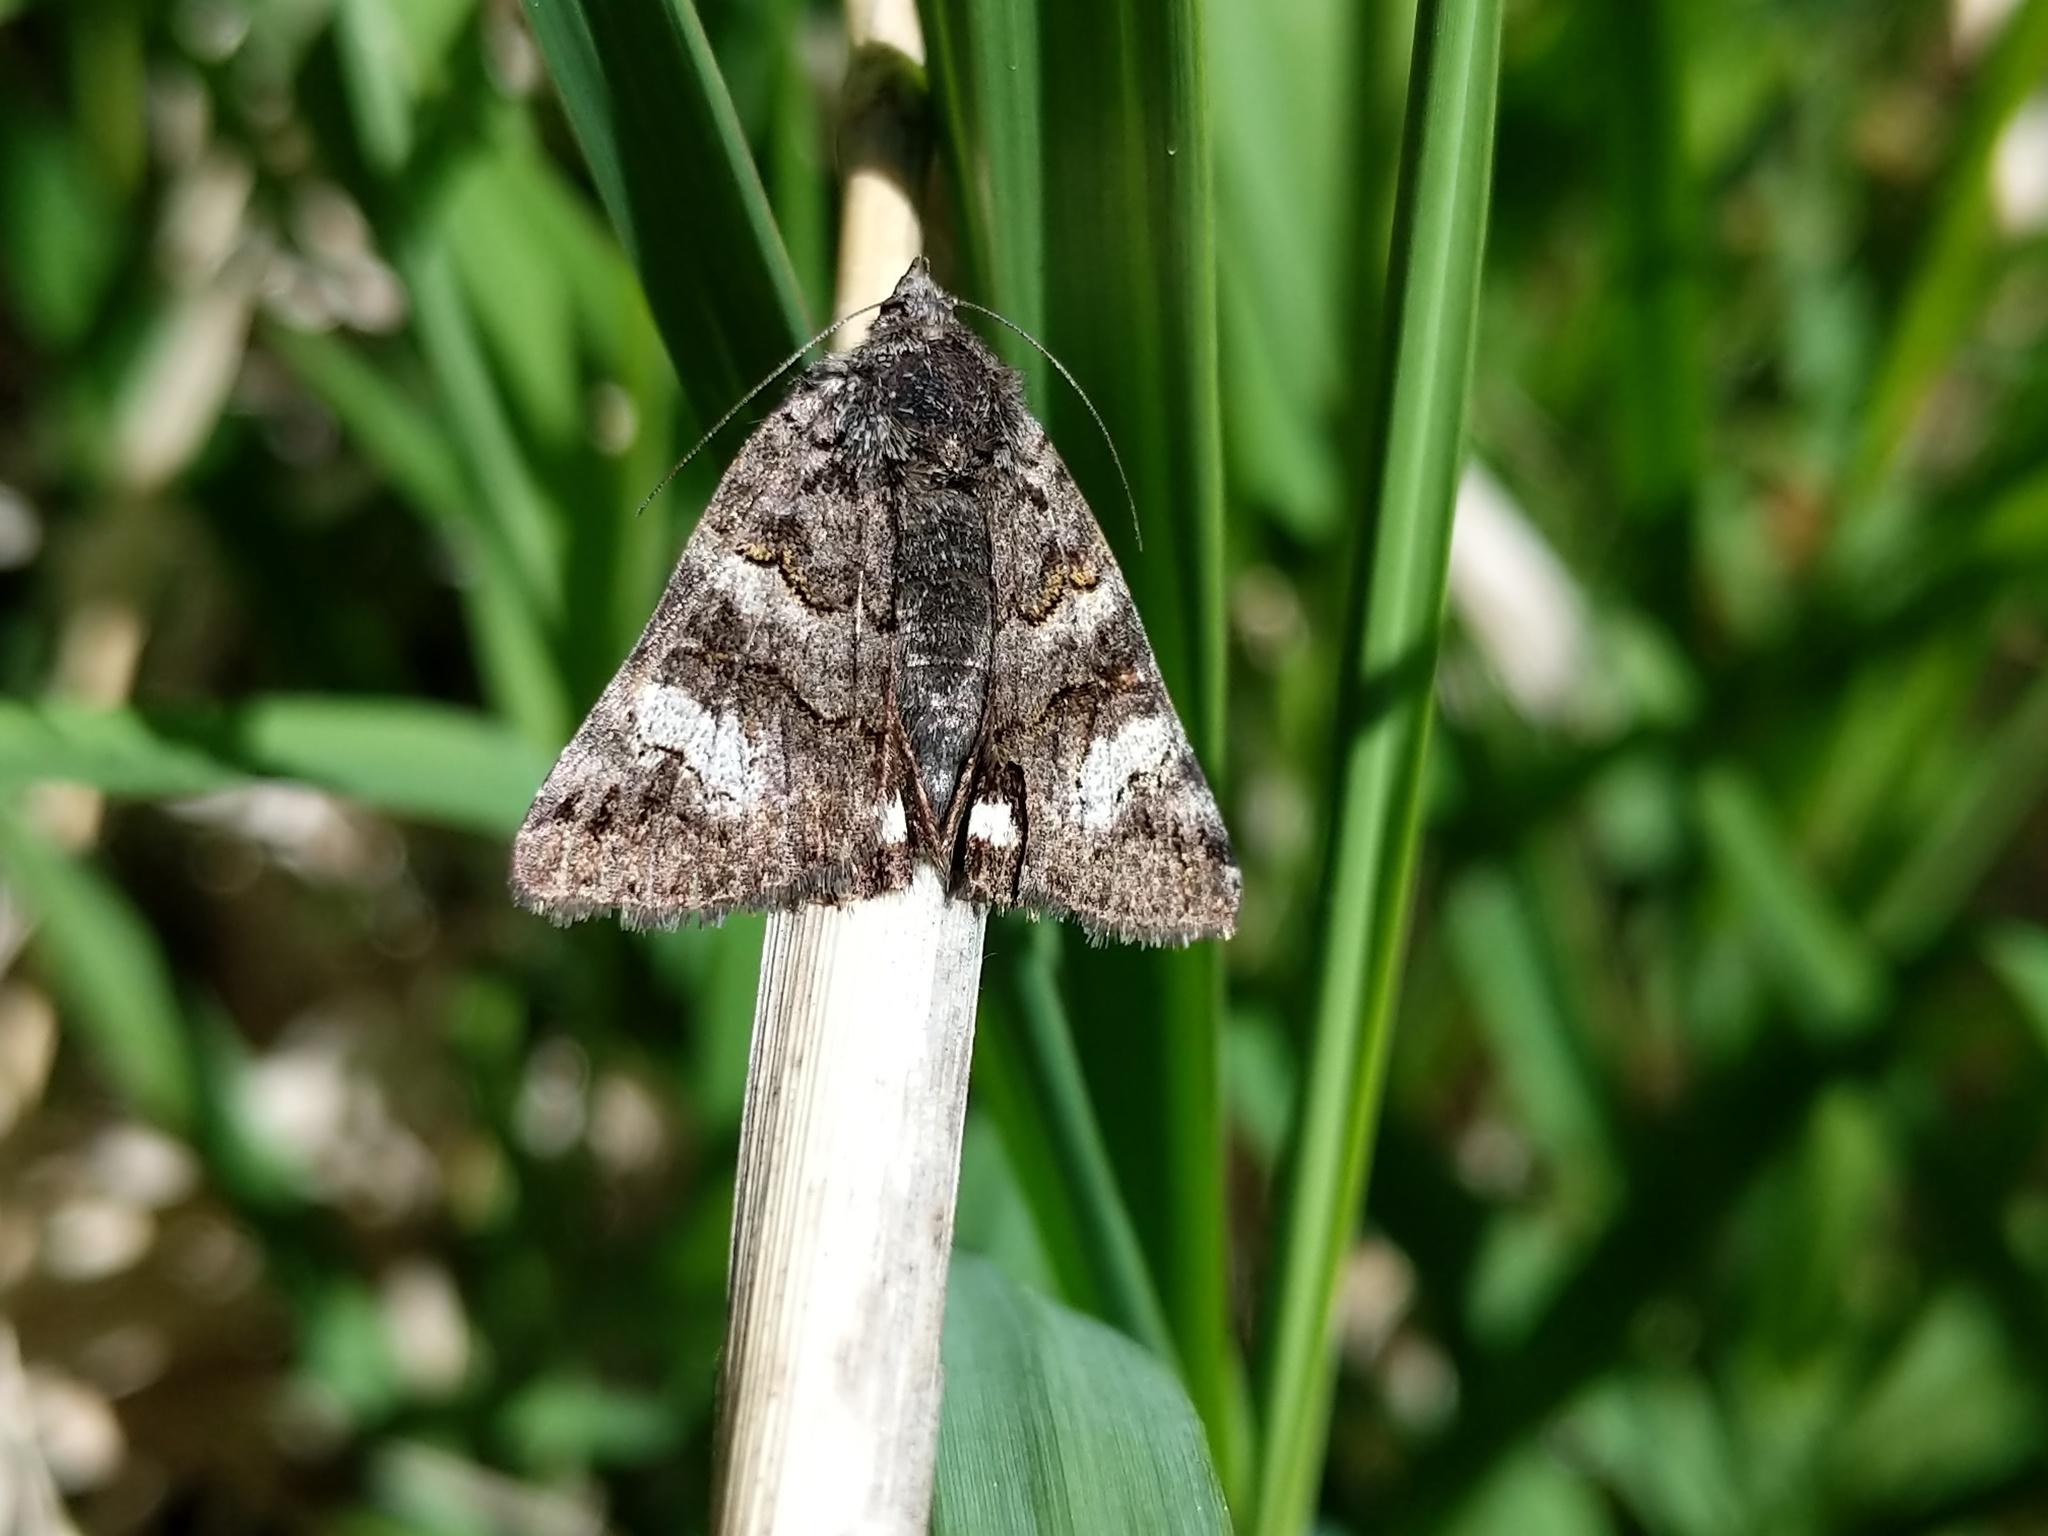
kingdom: Animalia
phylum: Arthropoda
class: Insecta
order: Lepidoptera
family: Erebidae
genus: Litocala
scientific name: Litocala sexsignata
